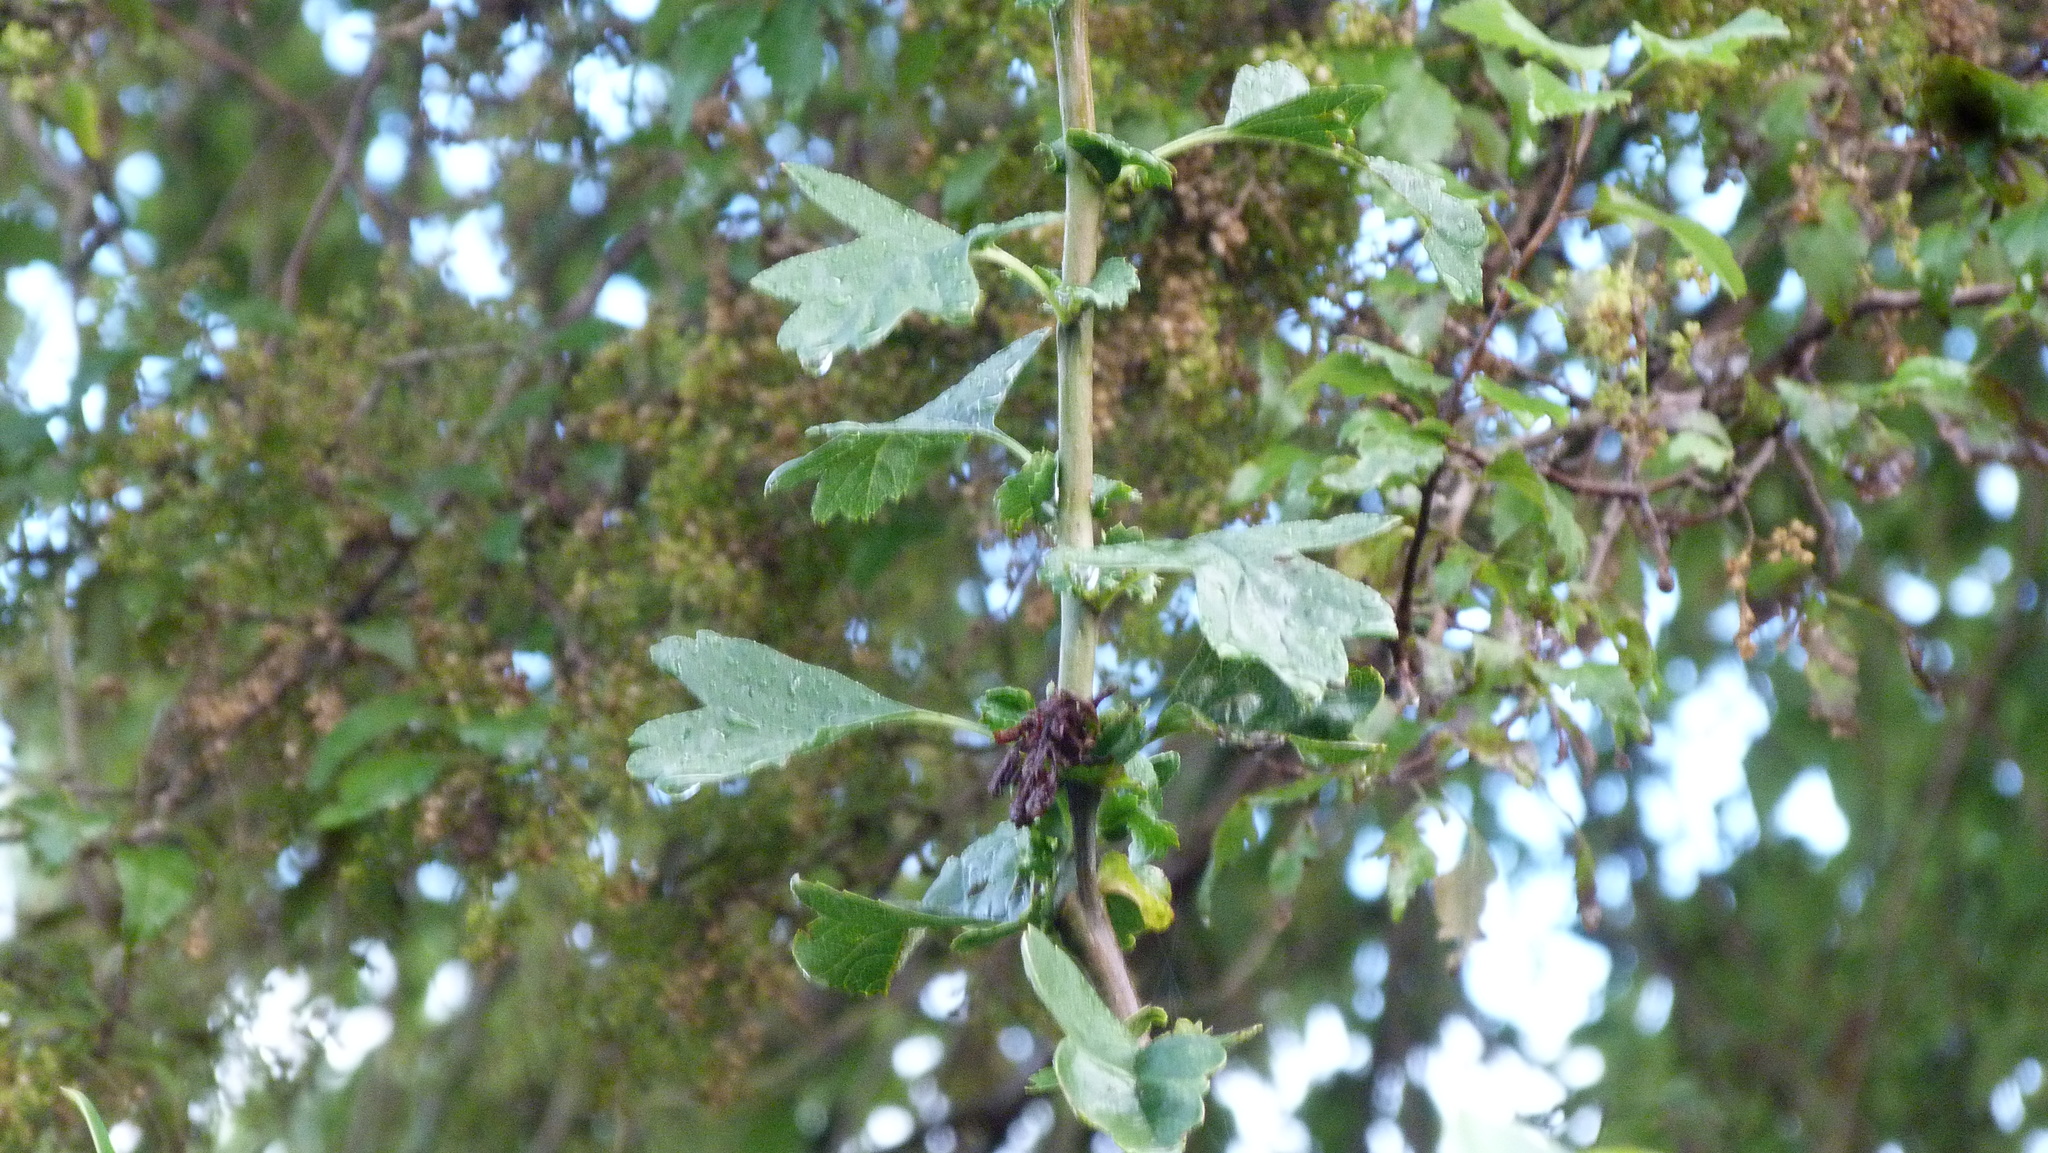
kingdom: Plantae
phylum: Tracheophyta
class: Magnoliopsida
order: Rosales
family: Rosaceae
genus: Crataegus
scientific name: Crataegus monogyna
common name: Hawthorn
